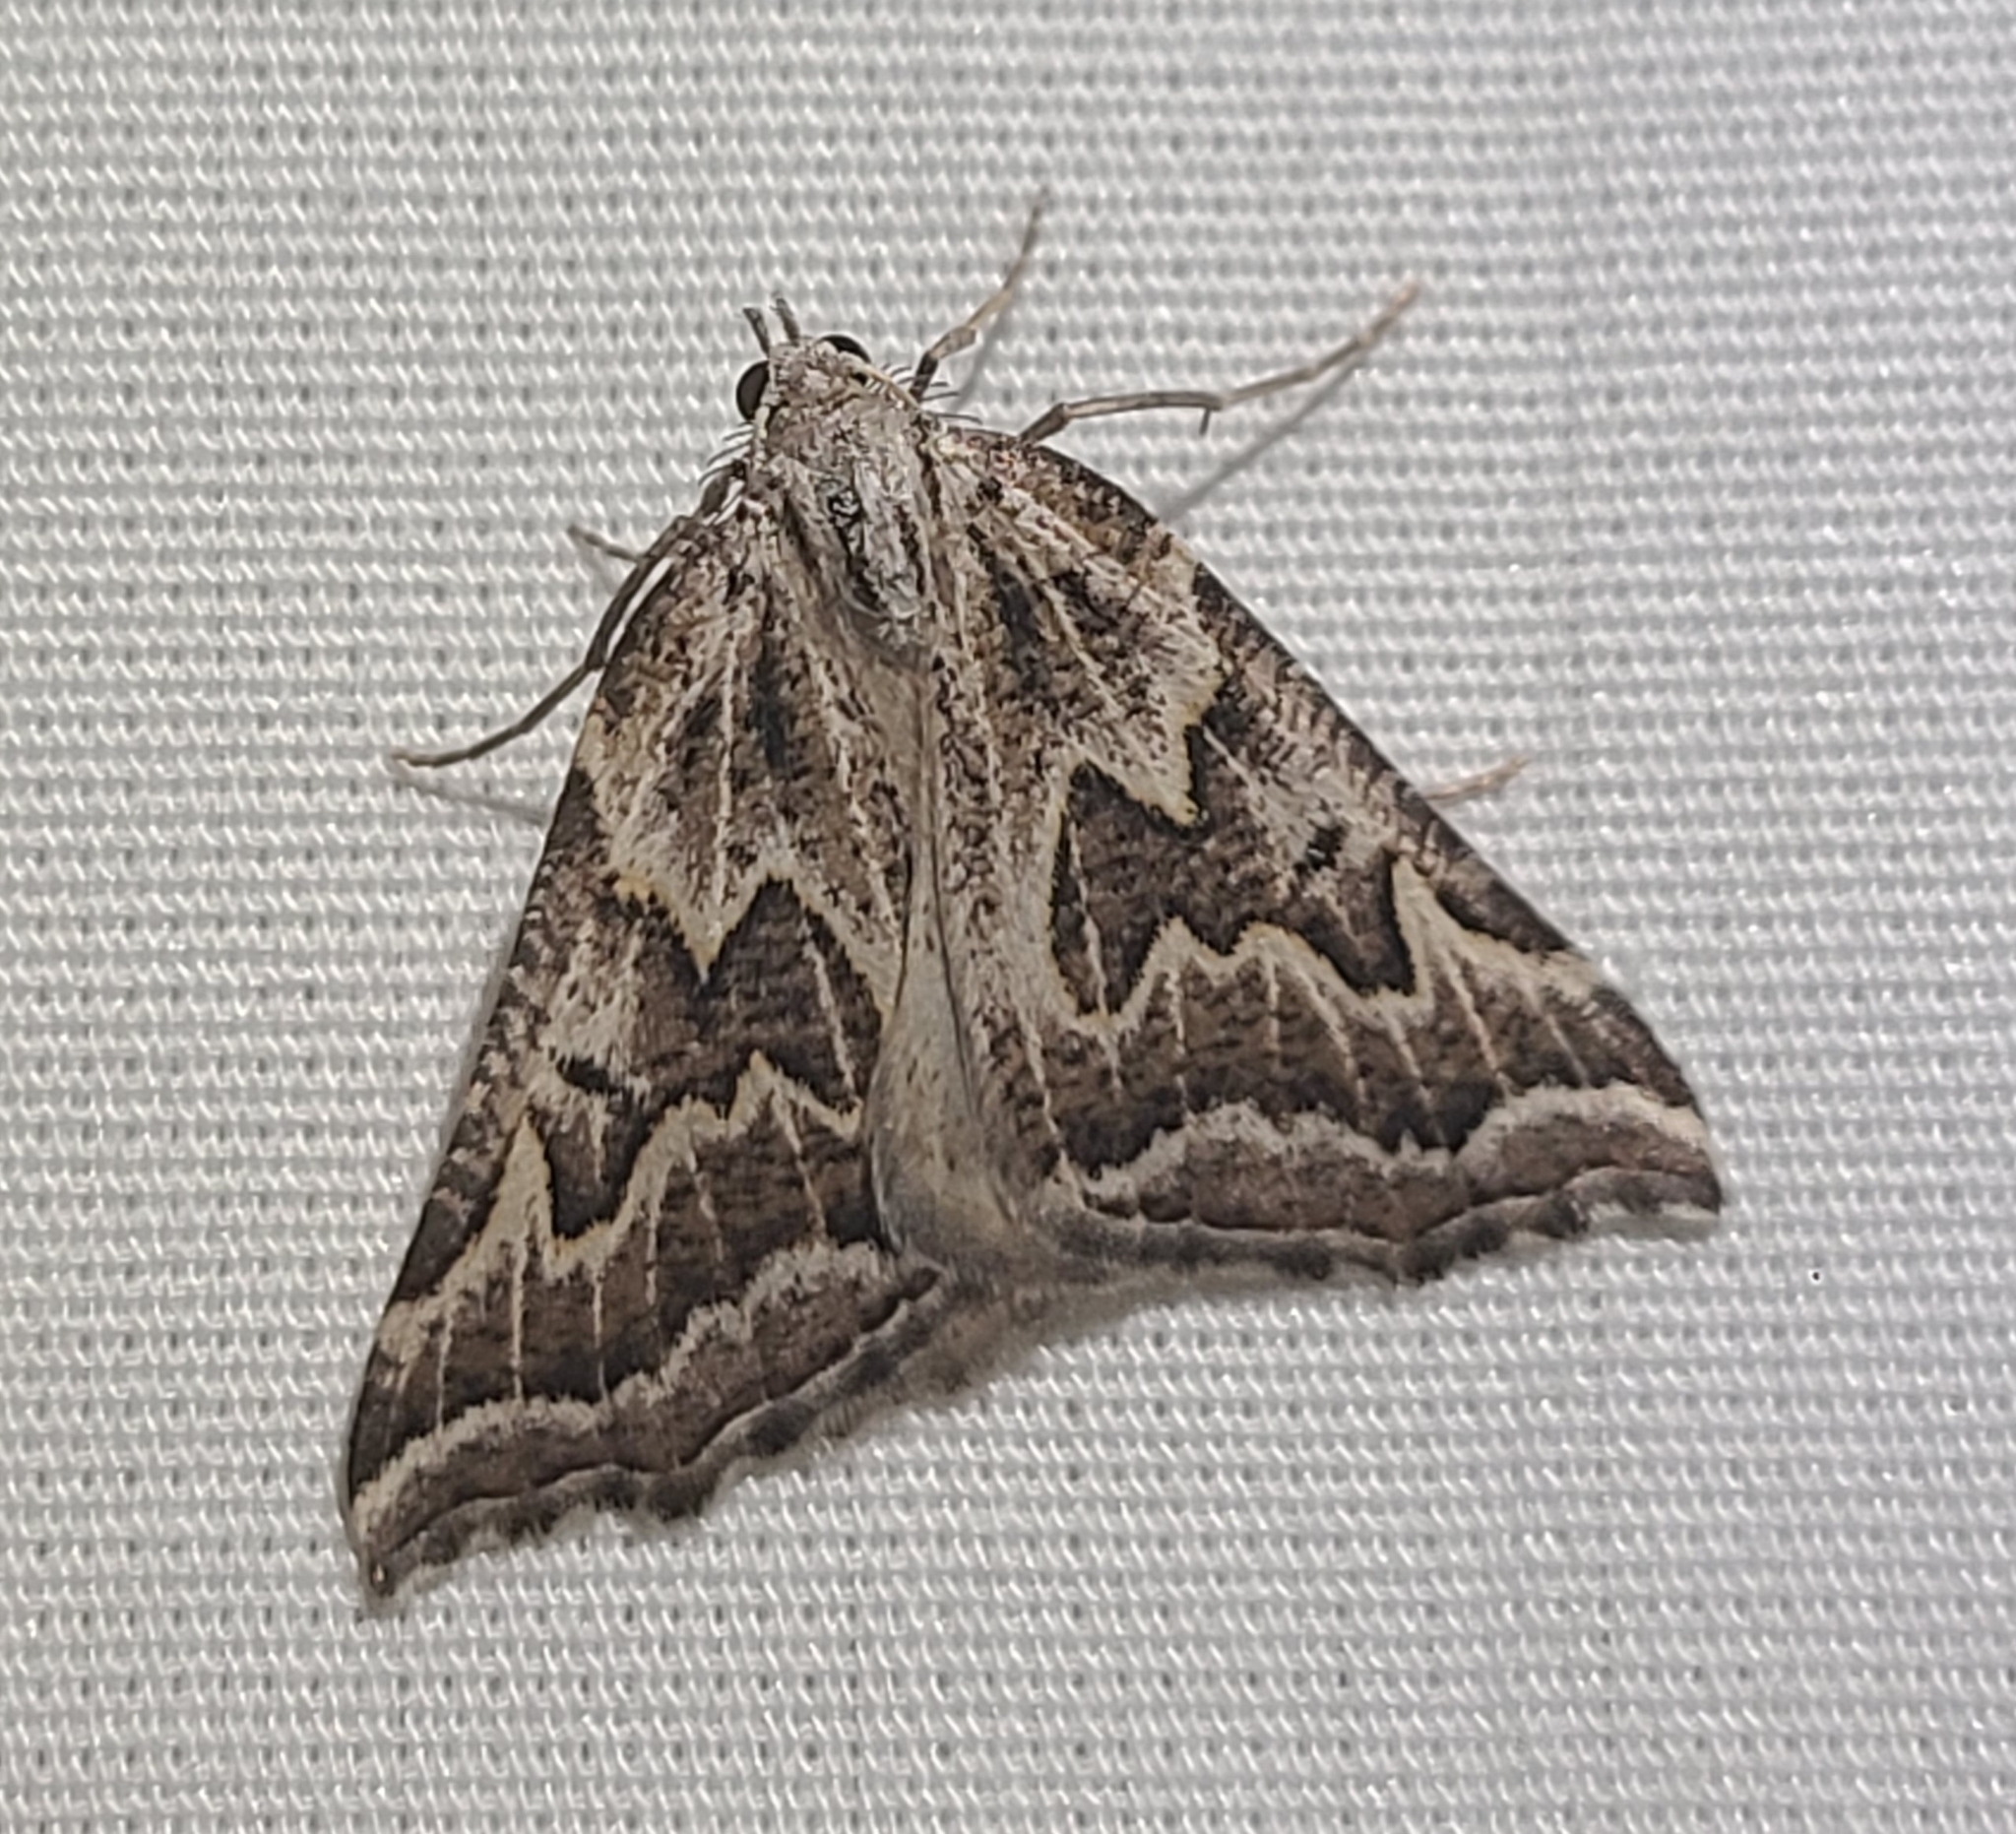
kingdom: Animalia
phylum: Arthropoda
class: Insecta
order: Lepidoptera
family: Geometridae
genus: Plataea
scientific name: Plataea ursaria
